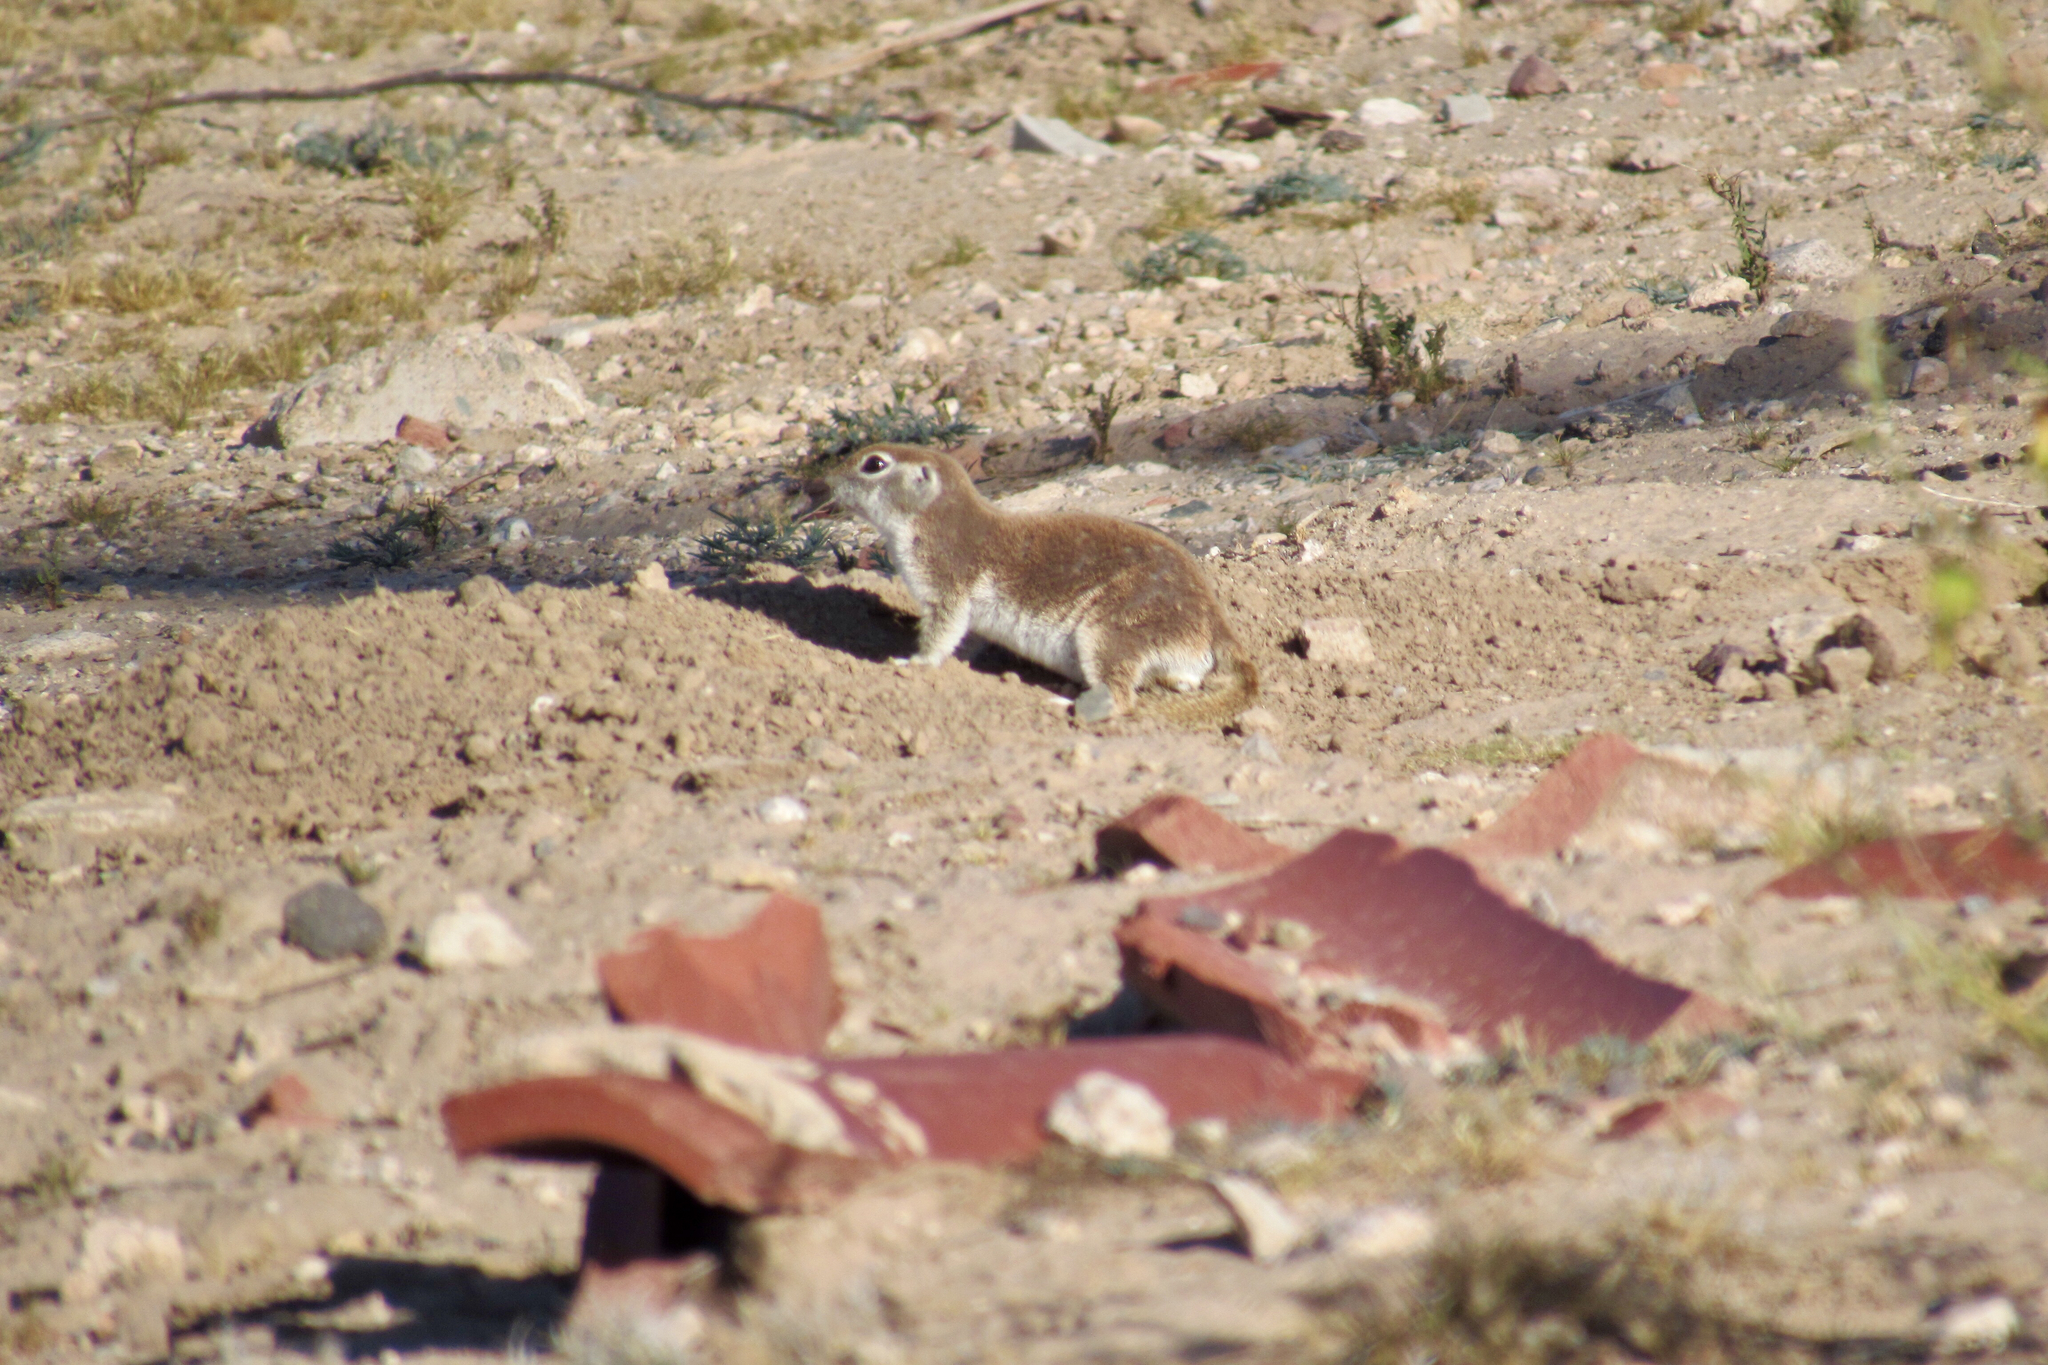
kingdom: Animalia
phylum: Chordata
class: Mammalia
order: Rodentia
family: Sciuridae
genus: Xerospermophilus
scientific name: Xerospermophilus tereticaudus
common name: Round-tailed ground squirrel
